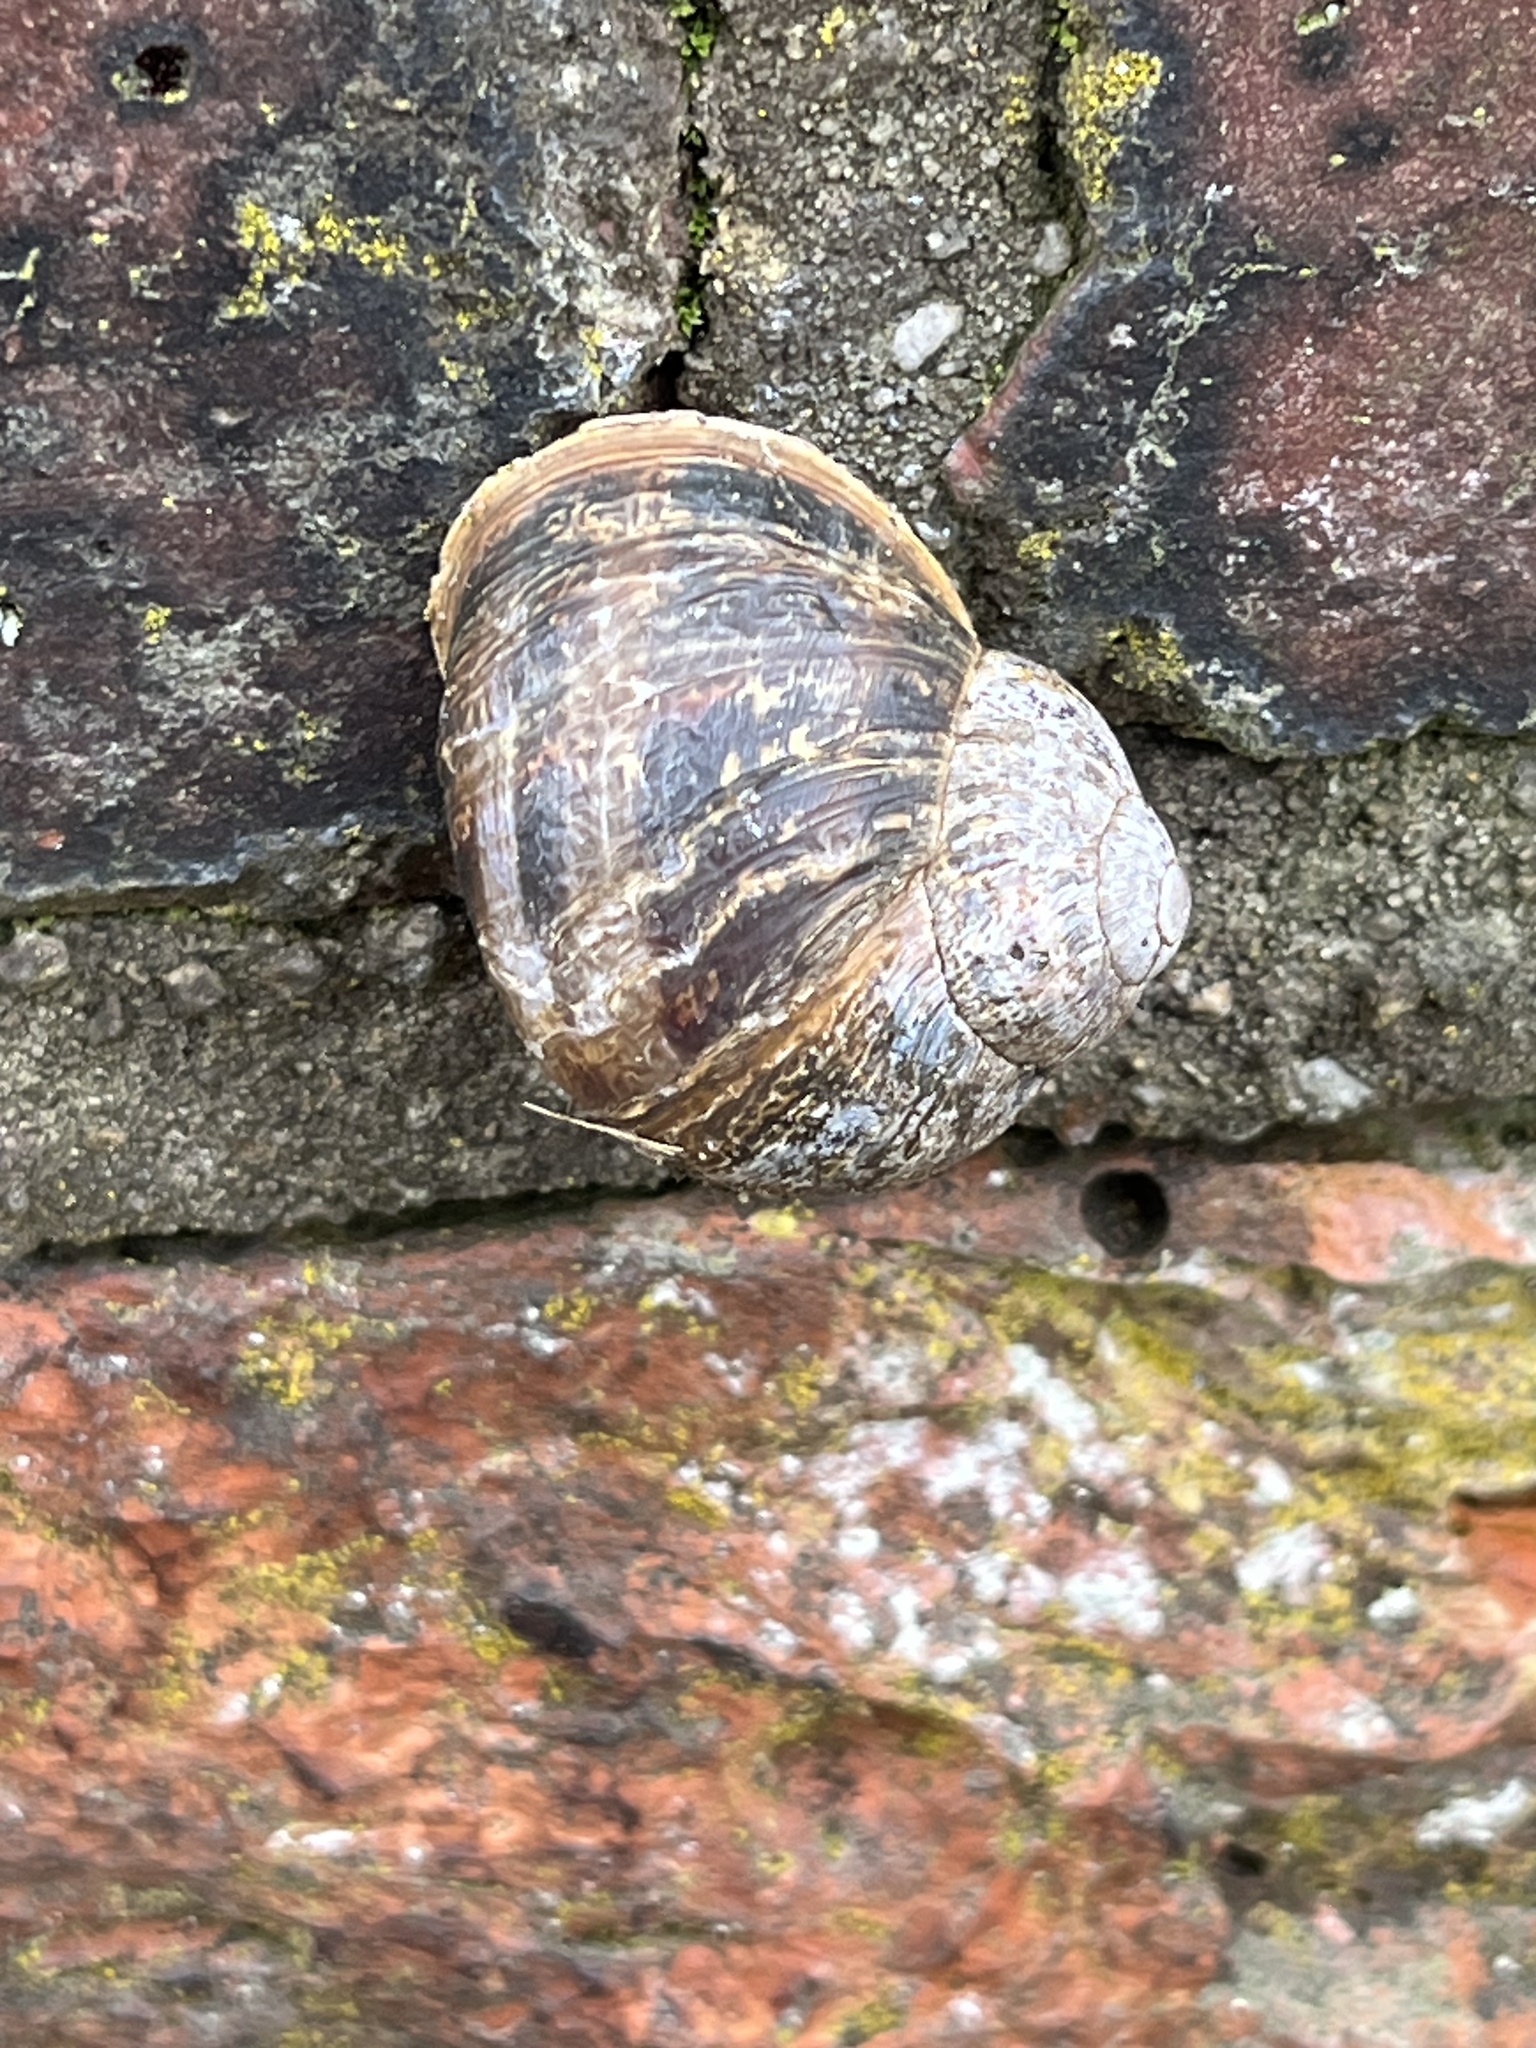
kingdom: Animalia
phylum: Mollusca
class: Gastropoda
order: Stylommatophora
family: Helicidae
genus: Cornu
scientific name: Cornu aspersum
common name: Brown garden snail
